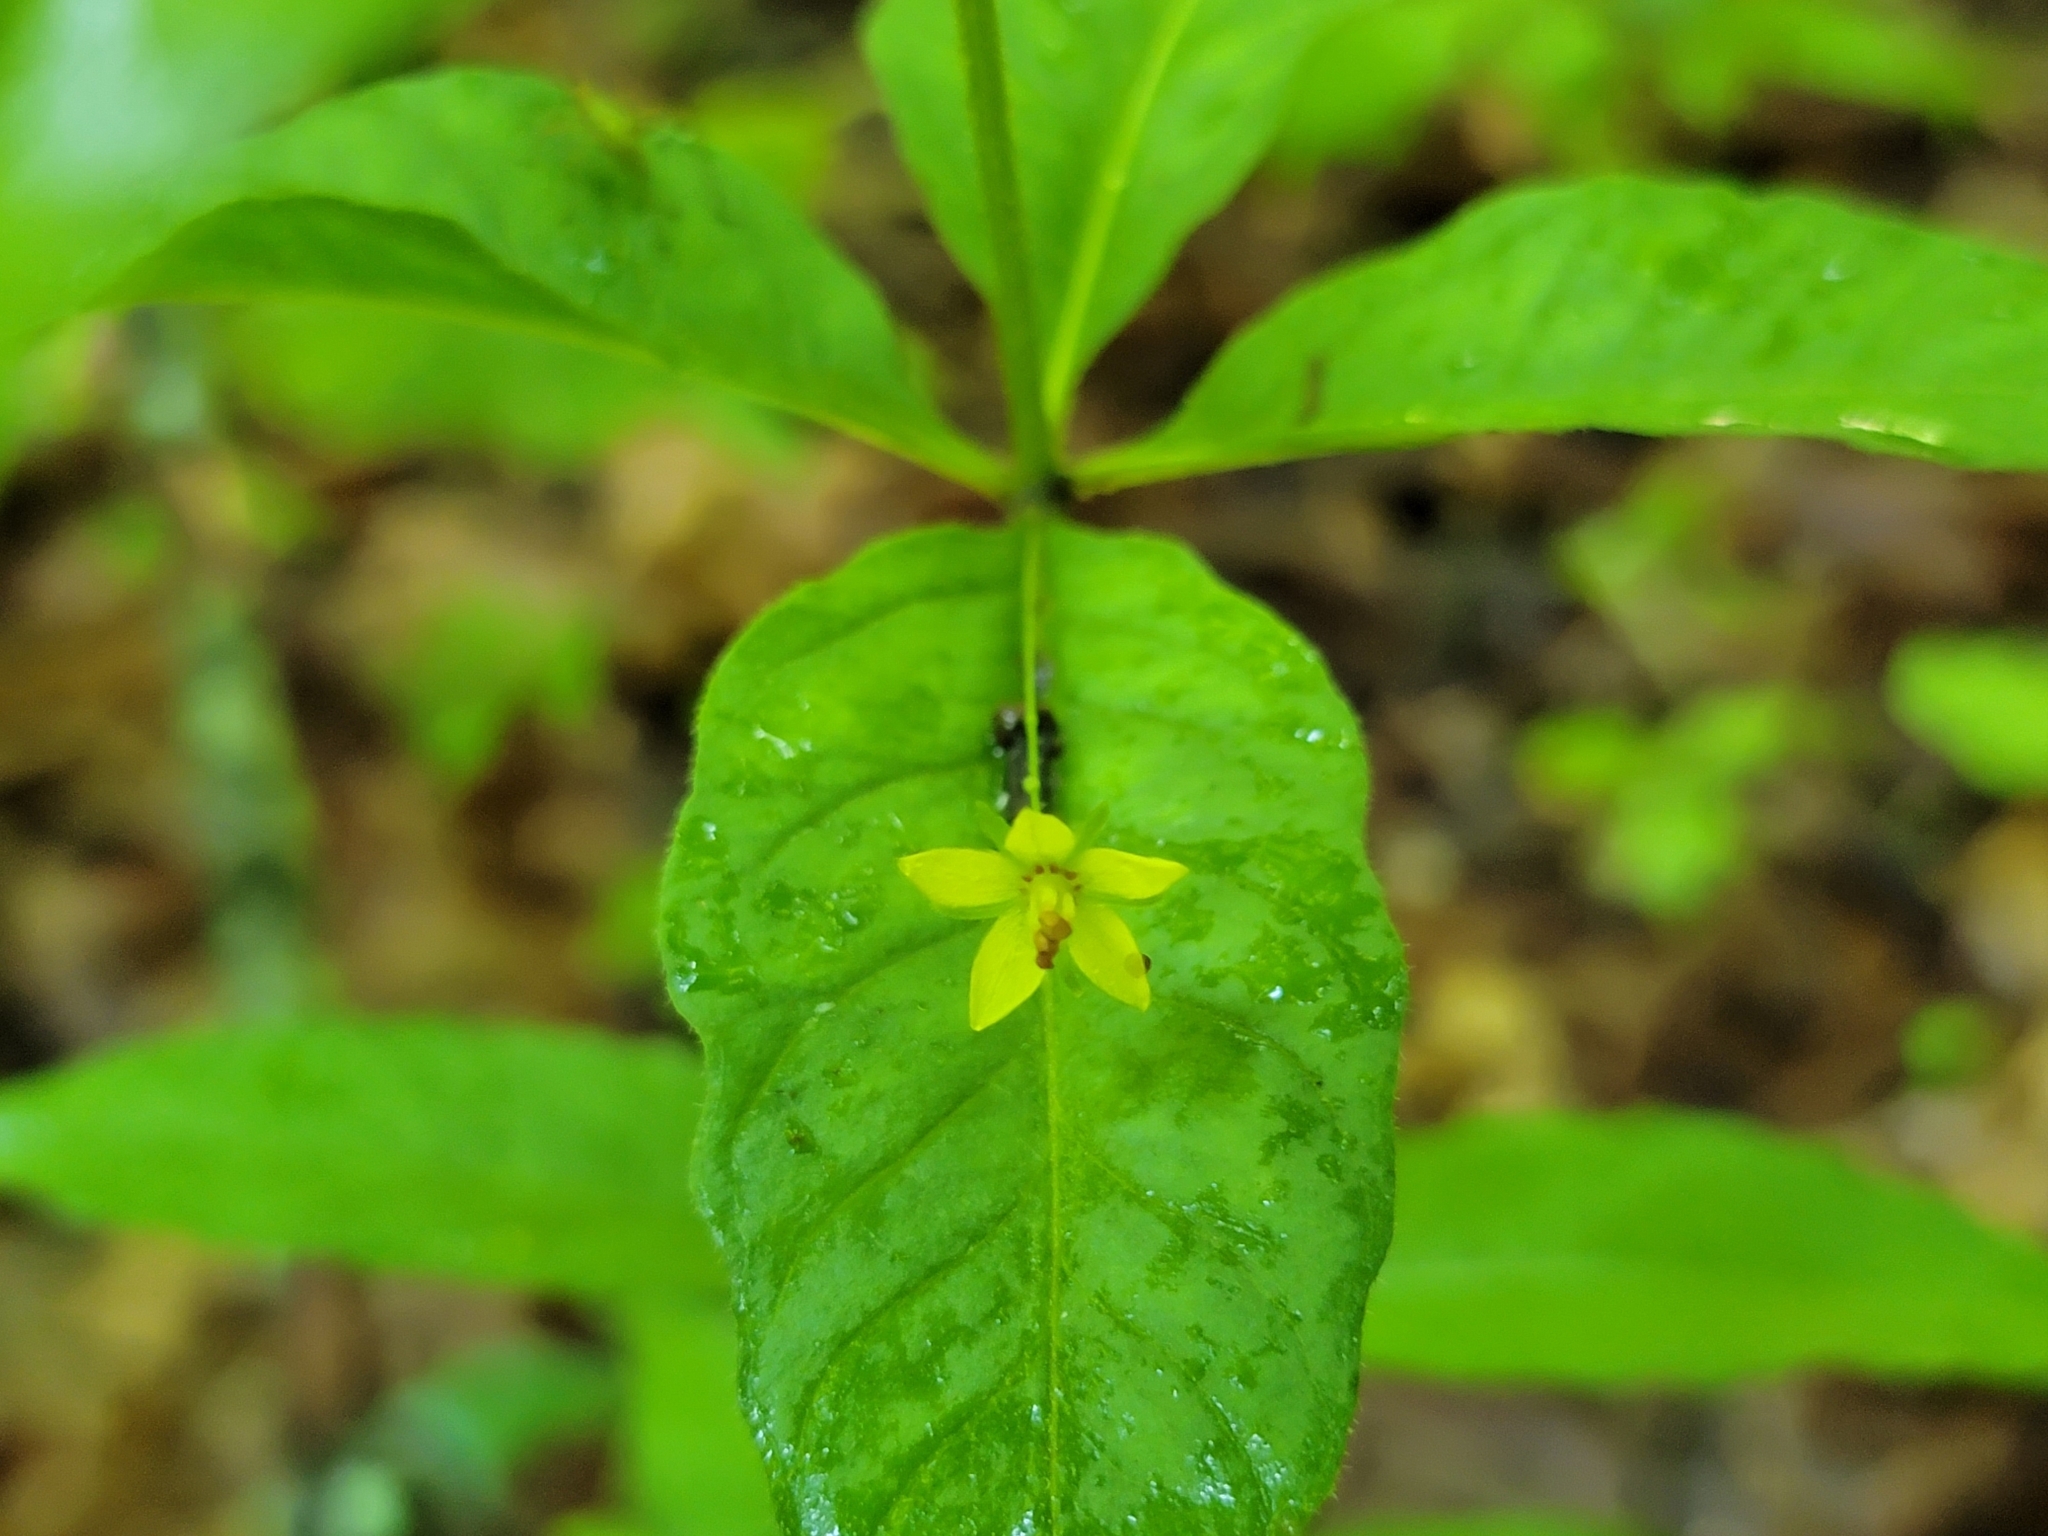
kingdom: Plantae
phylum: Tracheophyta
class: Magnoliopsida
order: Ericales
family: Primulaceae
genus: Lysimachia
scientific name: Lysimachia quadrifolia
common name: Whorled loosestrife
